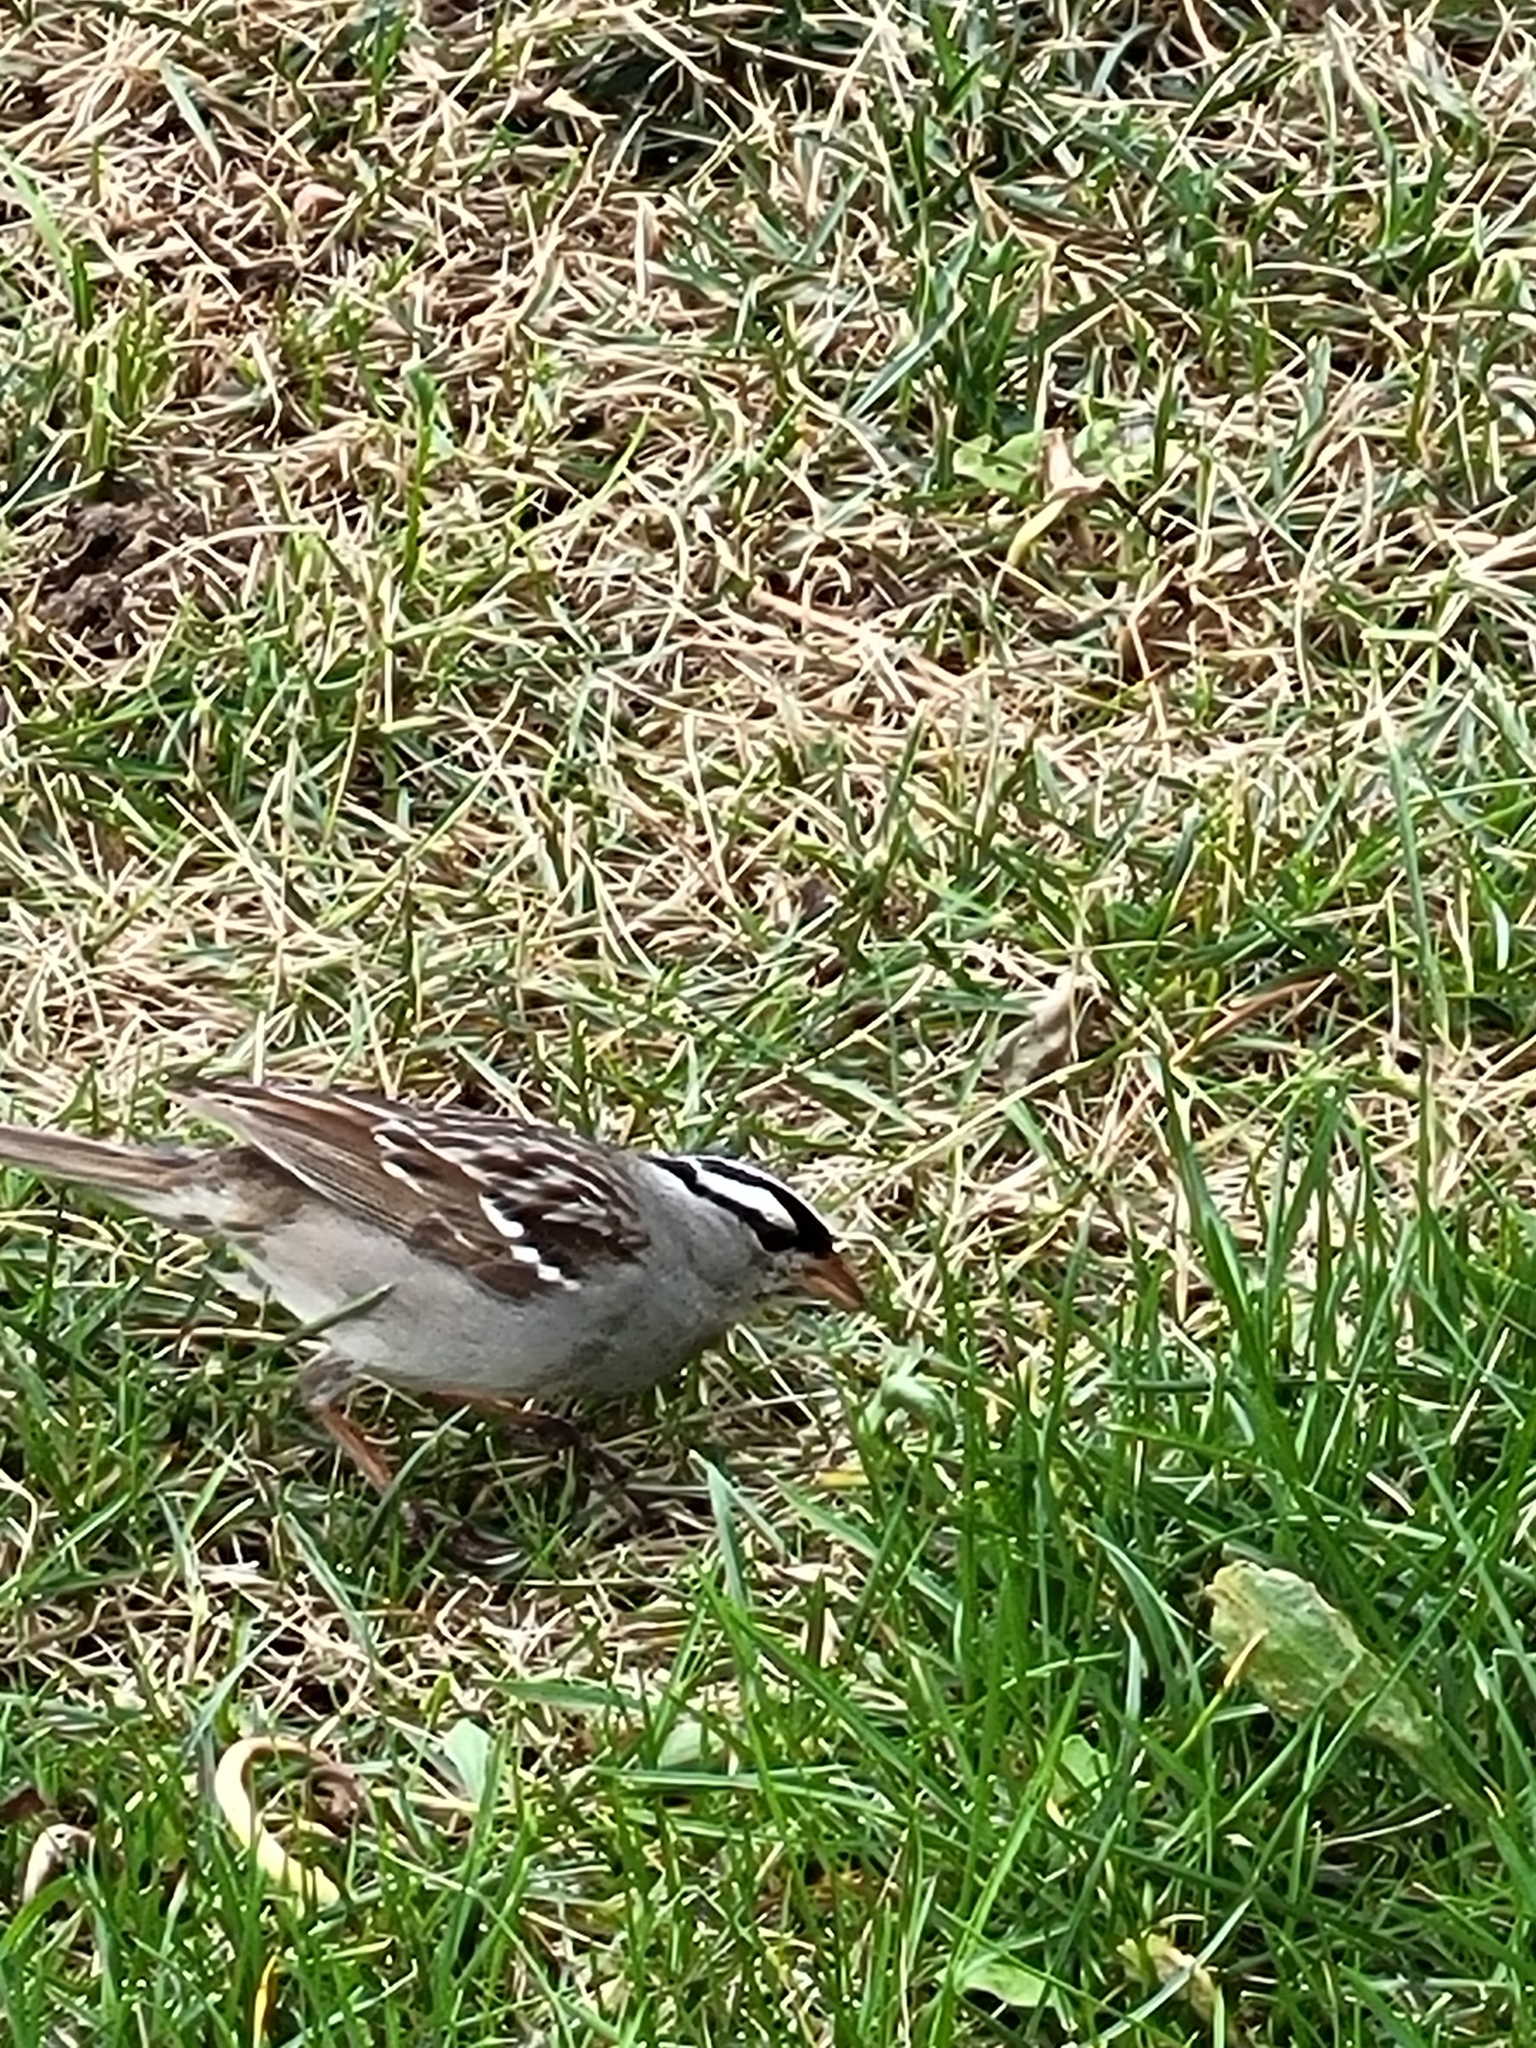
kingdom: Animalia
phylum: Chordata
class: Aves
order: Passeriformes
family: Passerellidae
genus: Zonotrichia
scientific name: Zonotrichia leucophrys
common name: White-crowned sparrow
